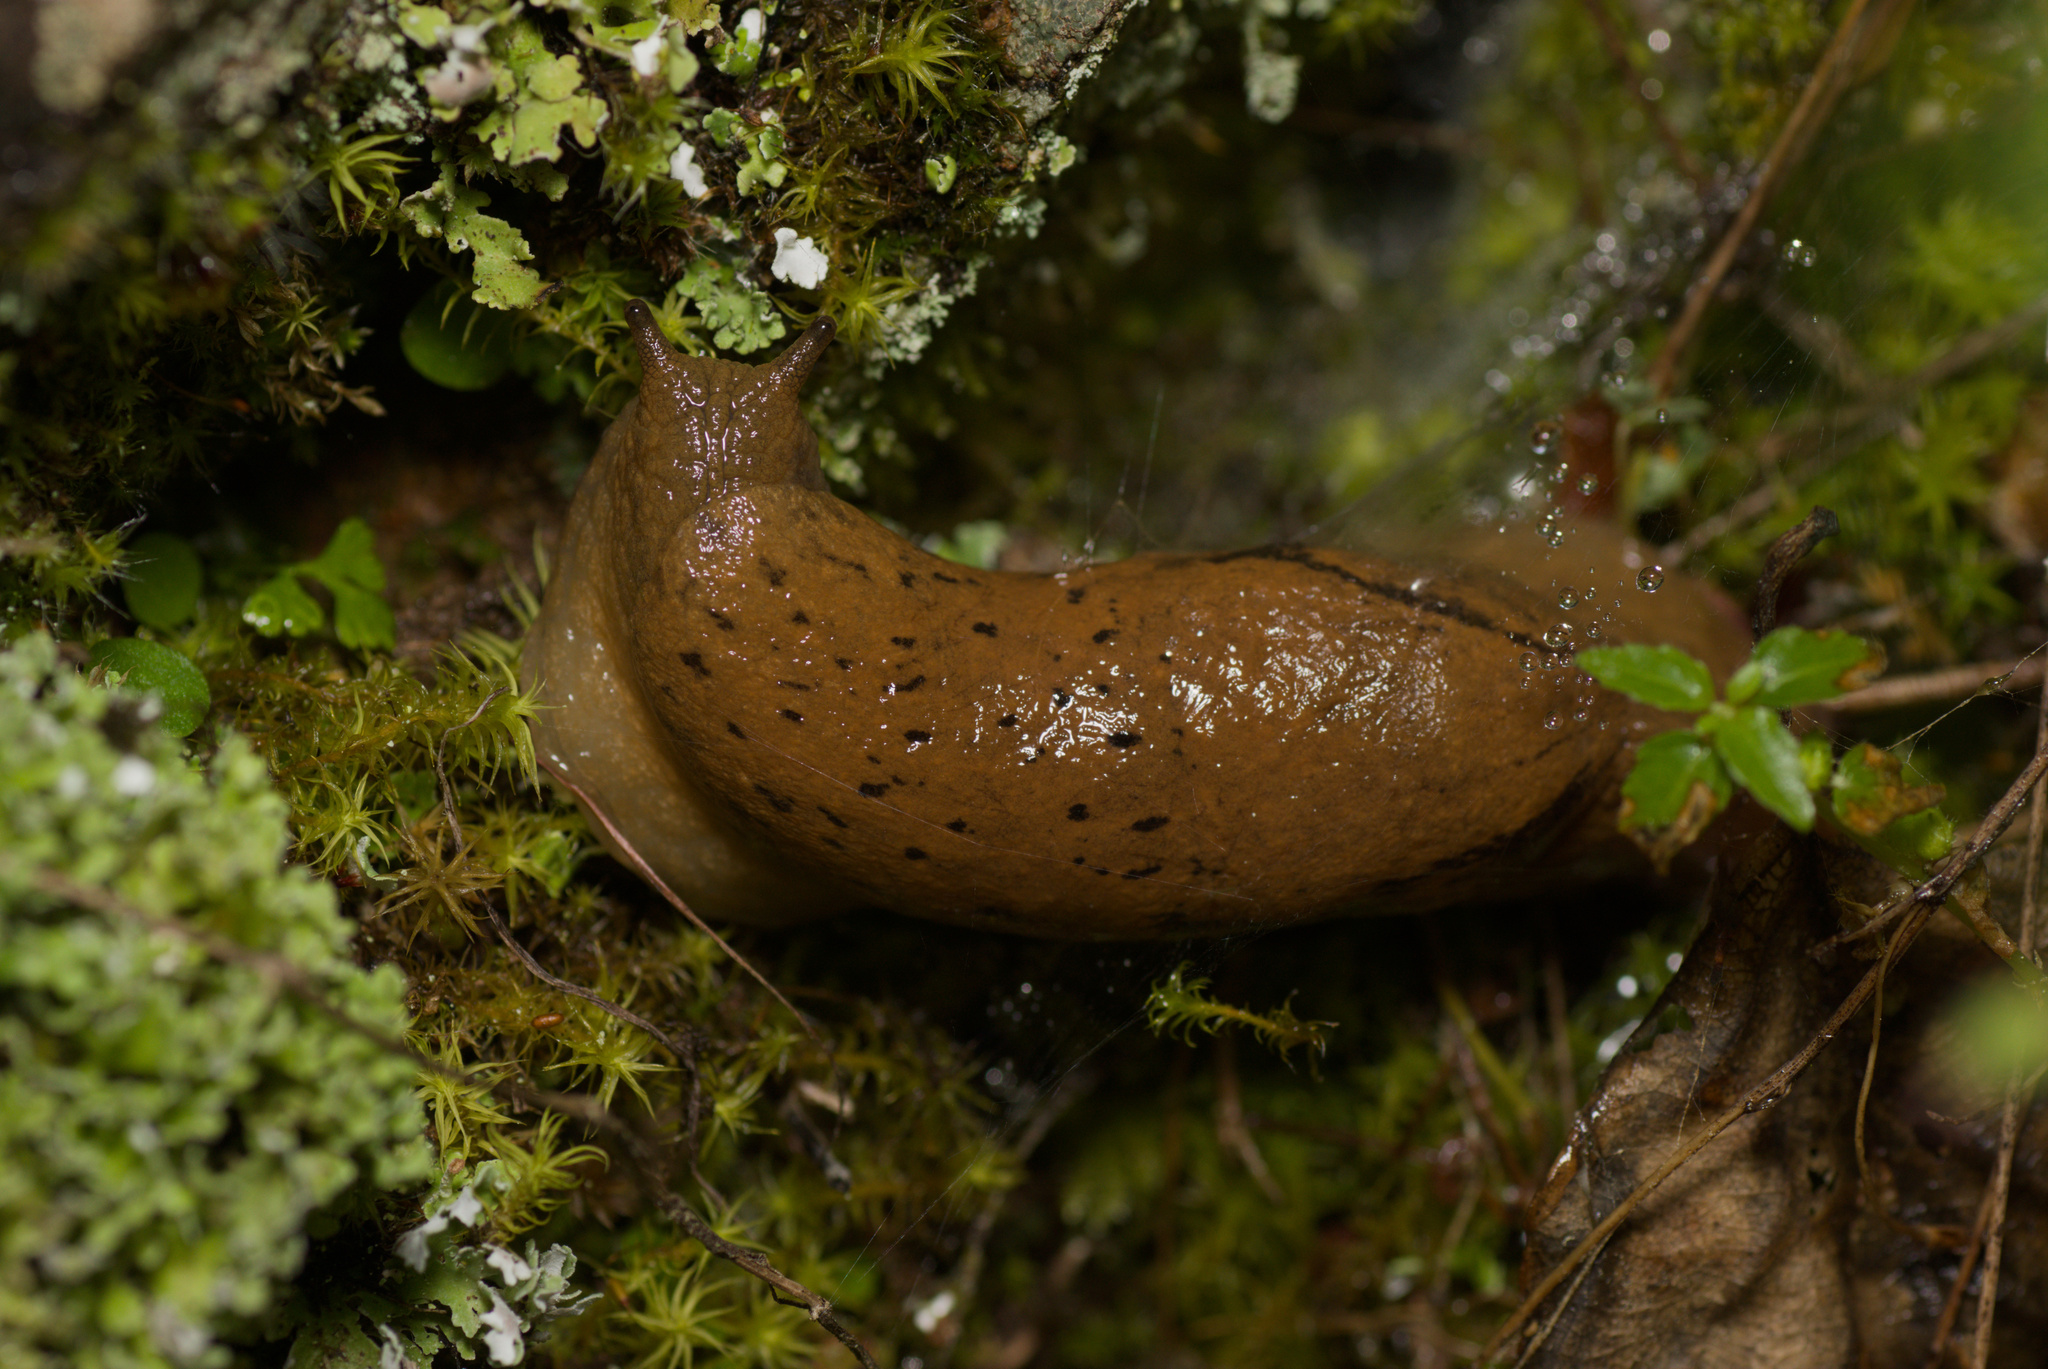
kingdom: Animalia
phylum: Mollusca
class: Gastropoda
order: Stylommatophora
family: Parmacellidae
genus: Drusia
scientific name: Drusia valenciennii
